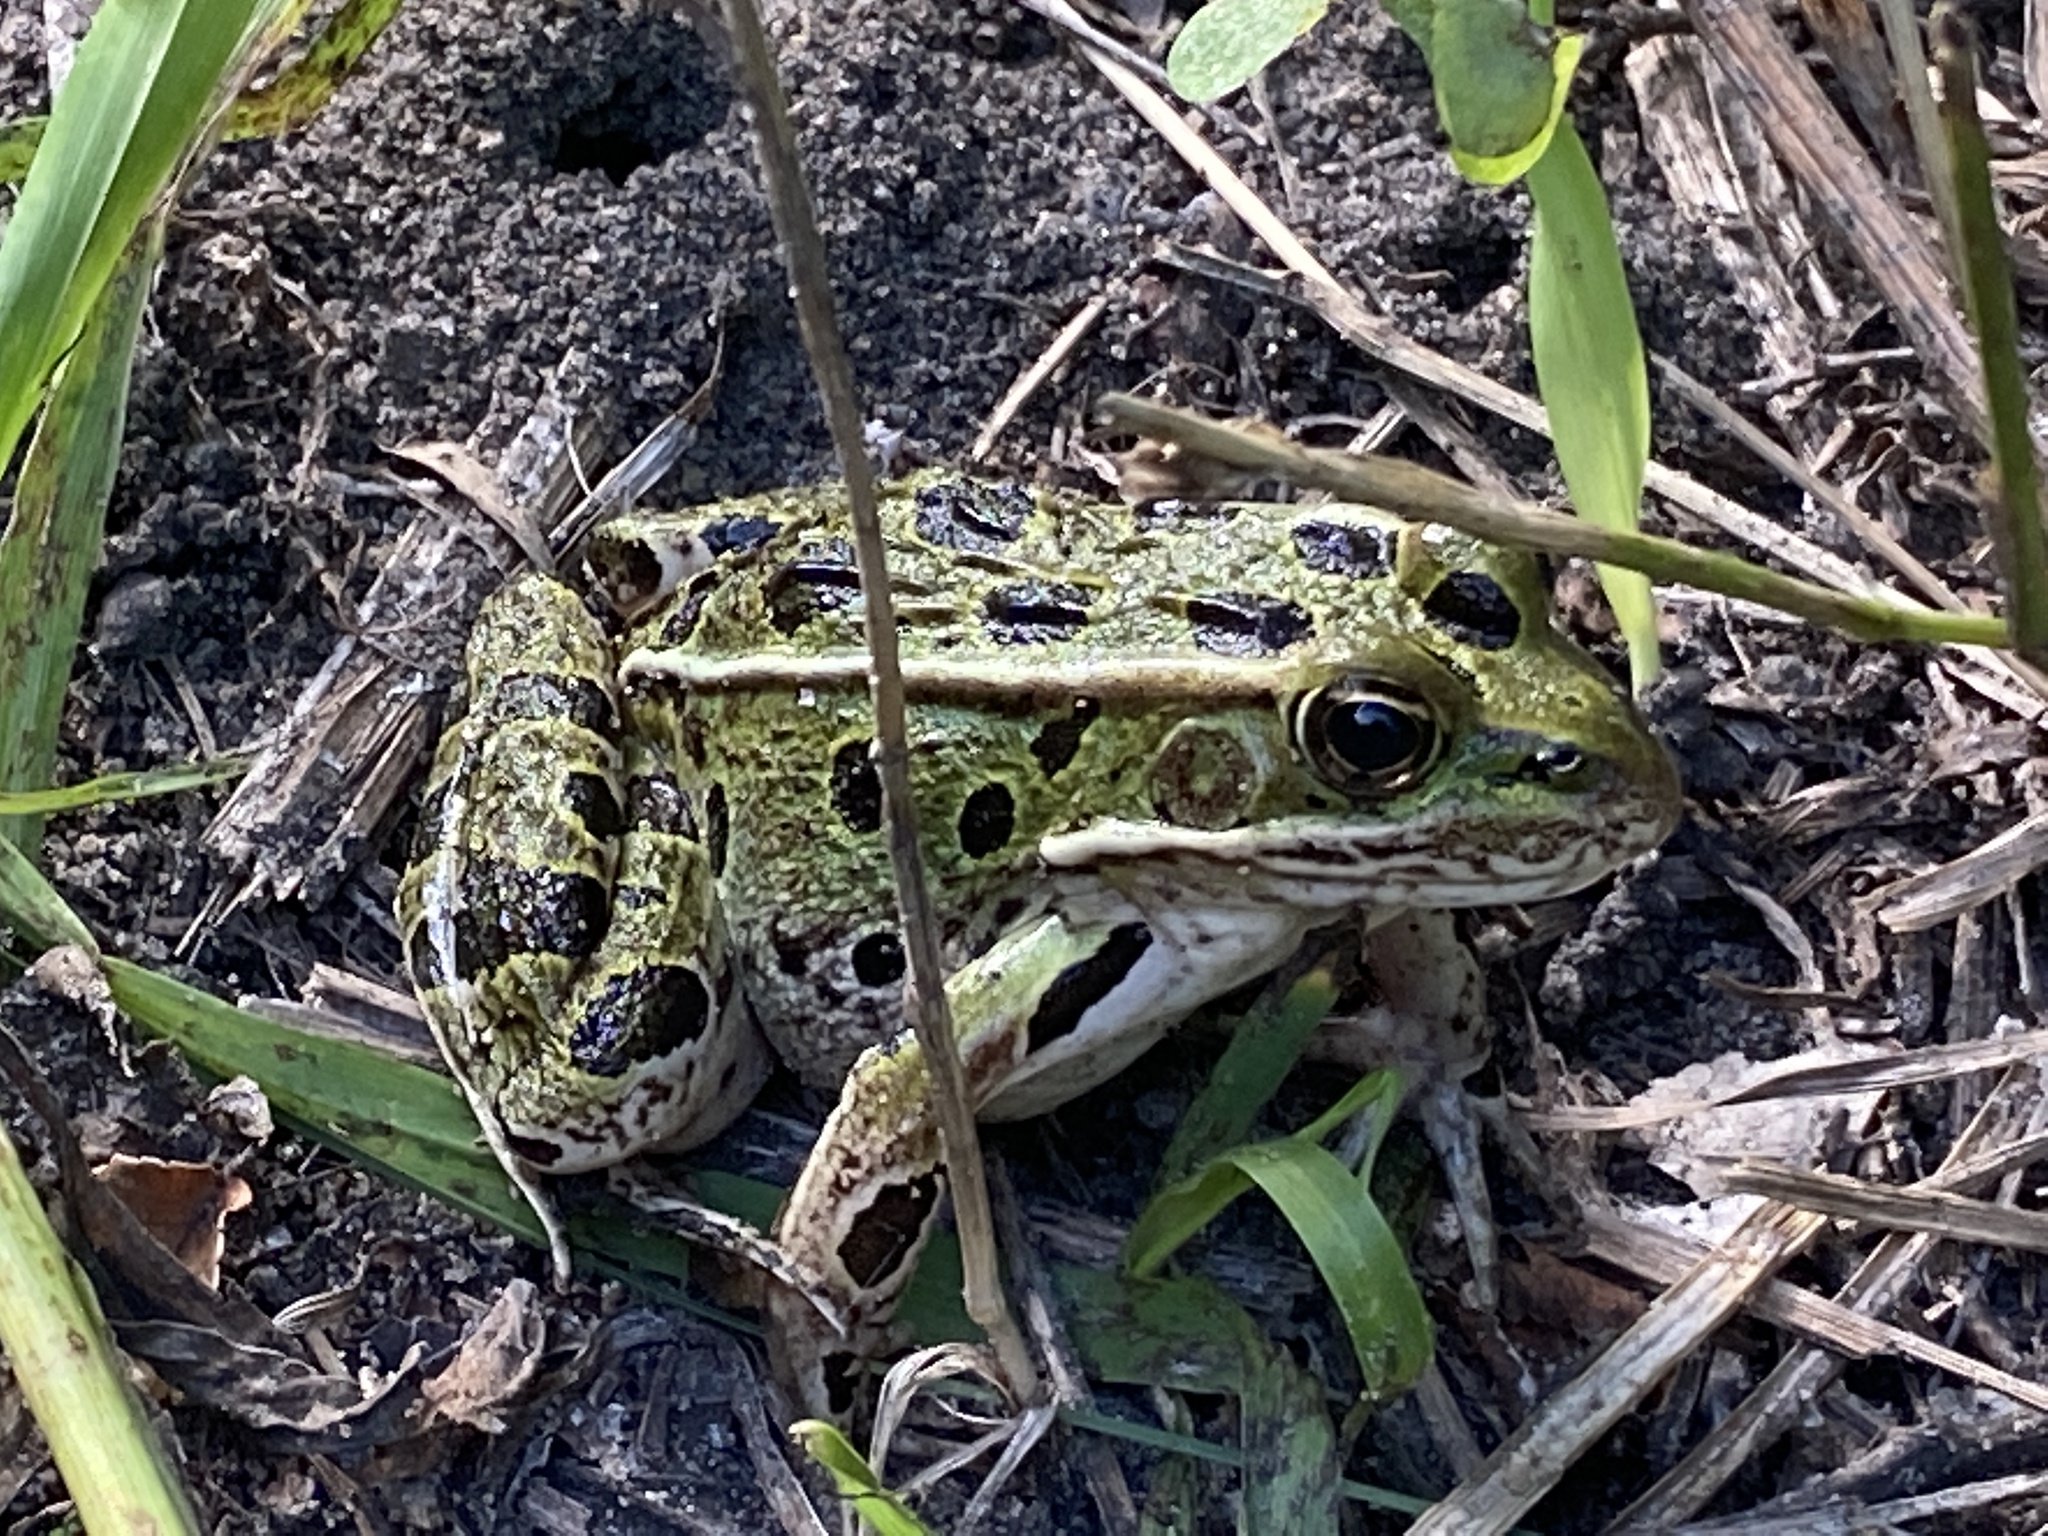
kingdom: Animalia
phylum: Chordata
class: Amphibia
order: Anura
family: Ranidae
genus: Lithobates
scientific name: Lithobates pipiens
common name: Northern leopard frog
